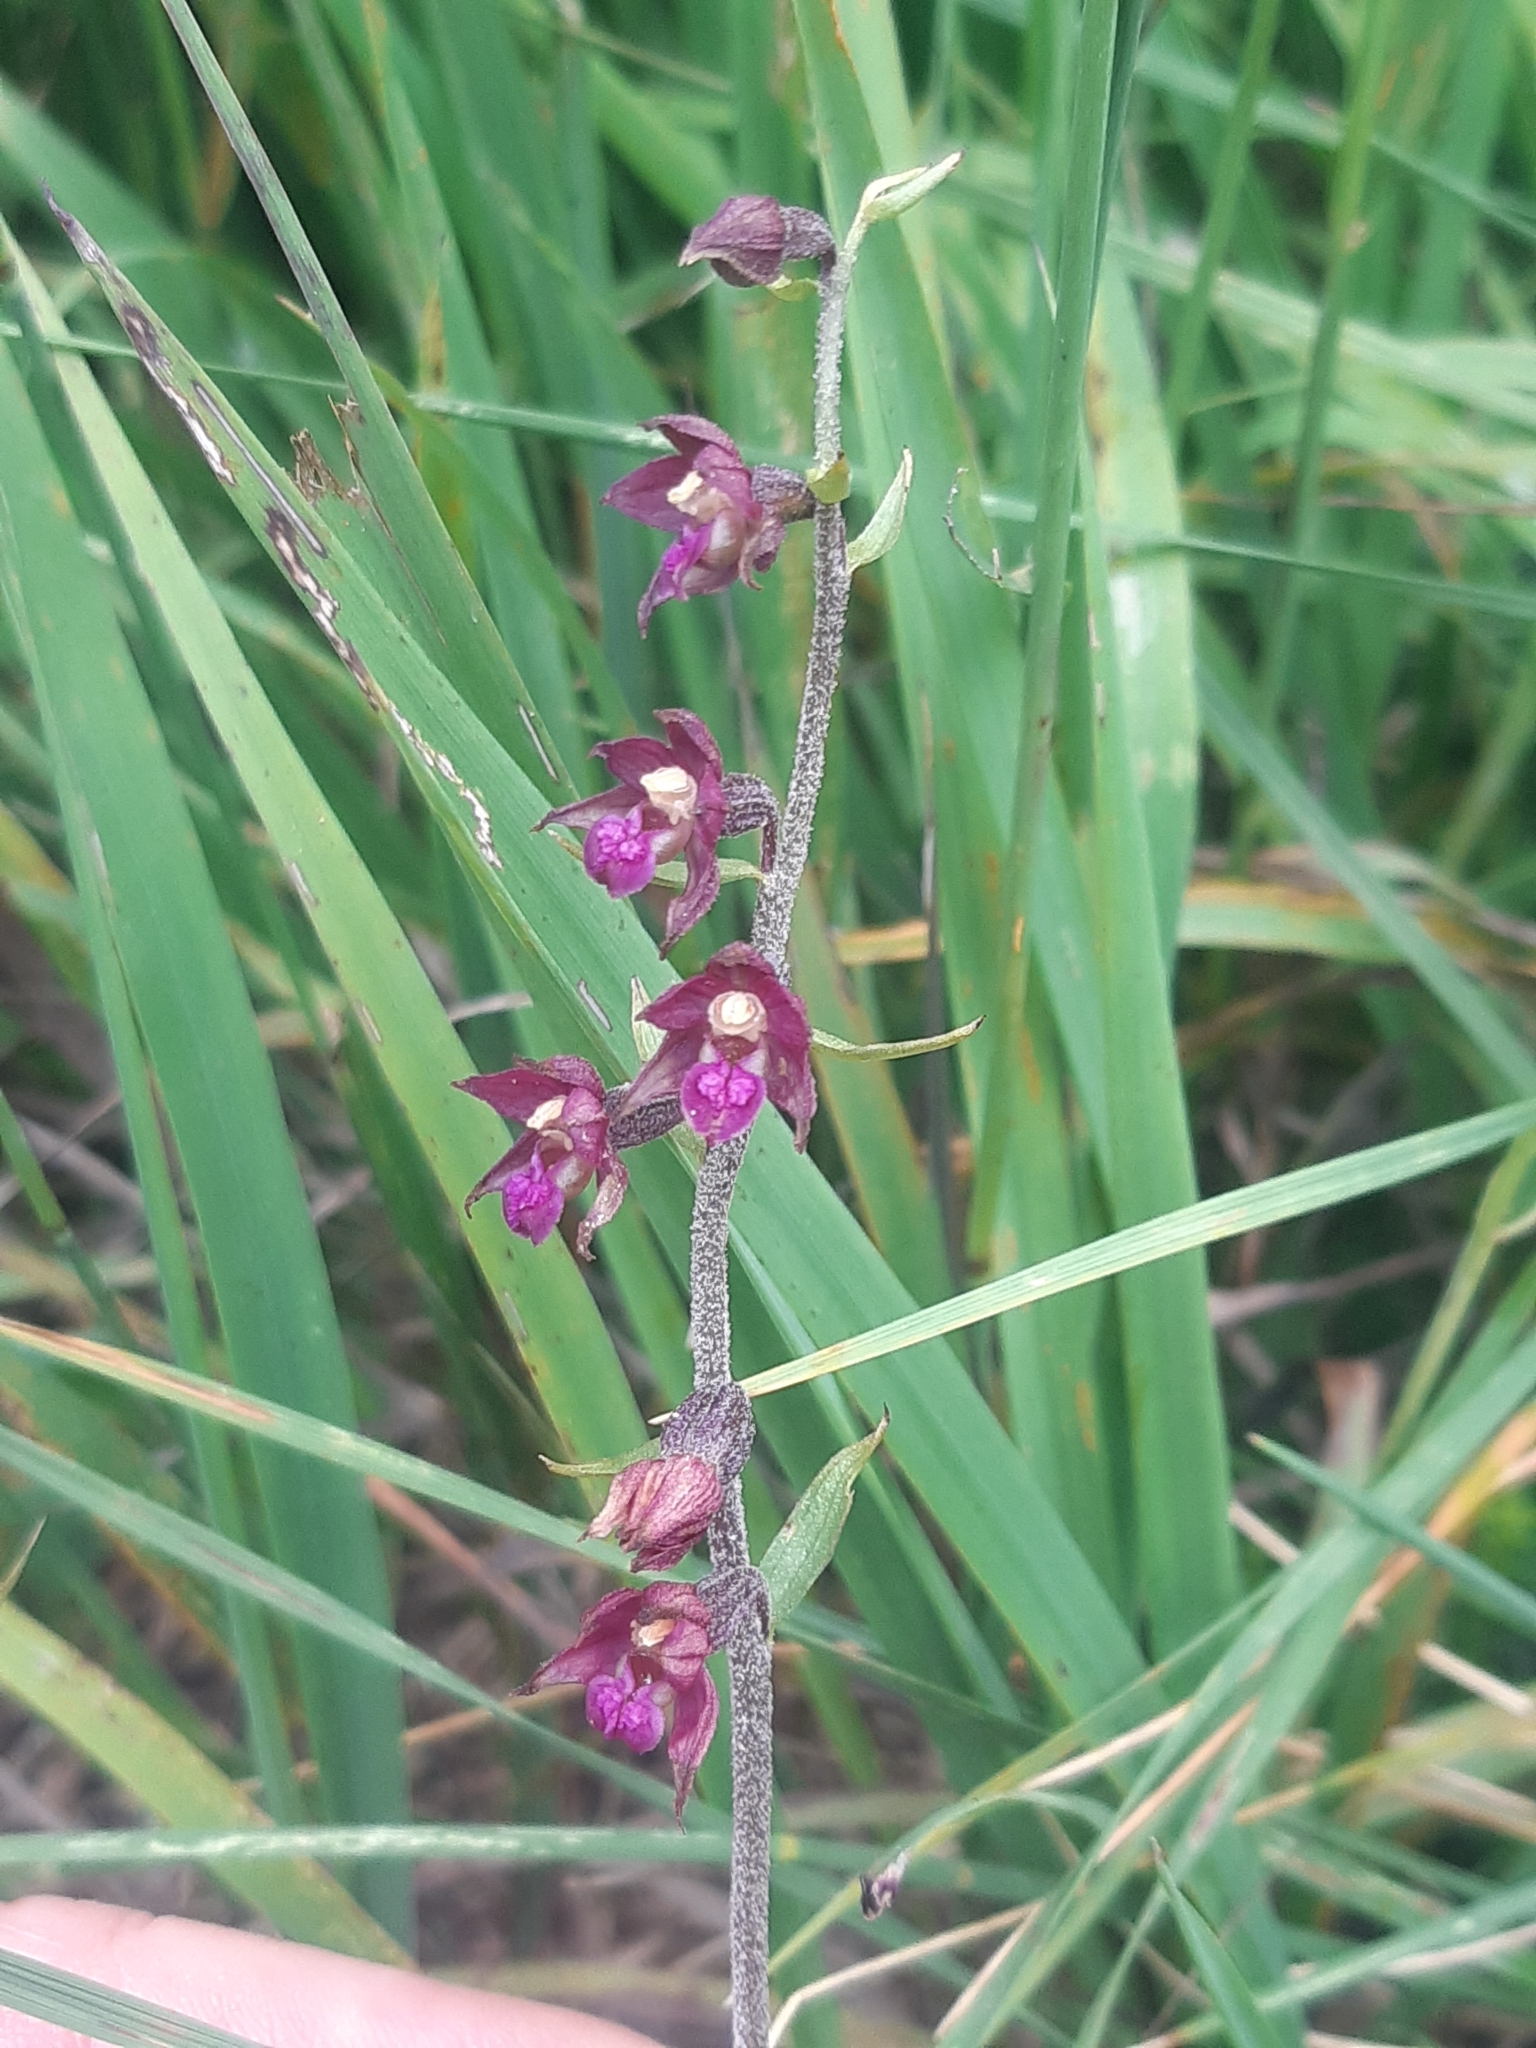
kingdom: Plantae
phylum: Tracheophyta
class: Liliopsida
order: Asparagales
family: Orchidaceae
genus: Epipactis
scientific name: Epipactis atrorubens
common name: Dark-red helleborine
